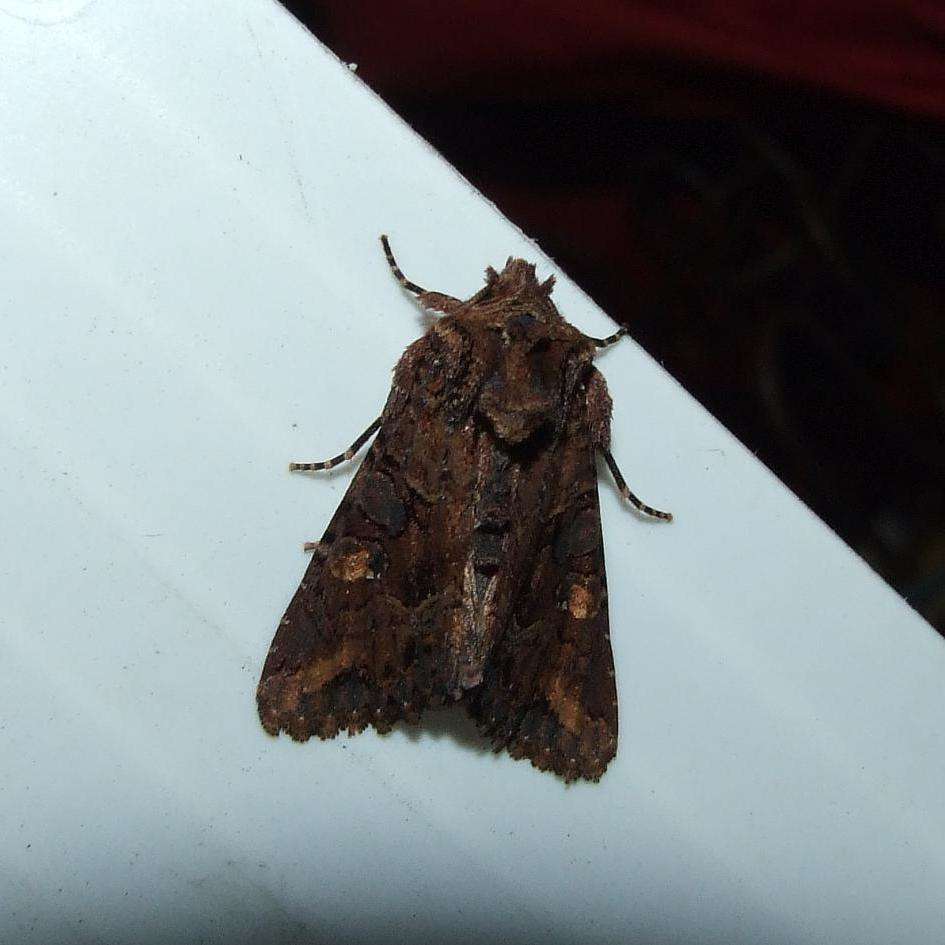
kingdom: Animalia
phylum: Arthropoda
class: Insecta
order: Lepidoptera
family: Noctuidae
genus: Neumichtis
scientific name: Neumichtis saliaris
